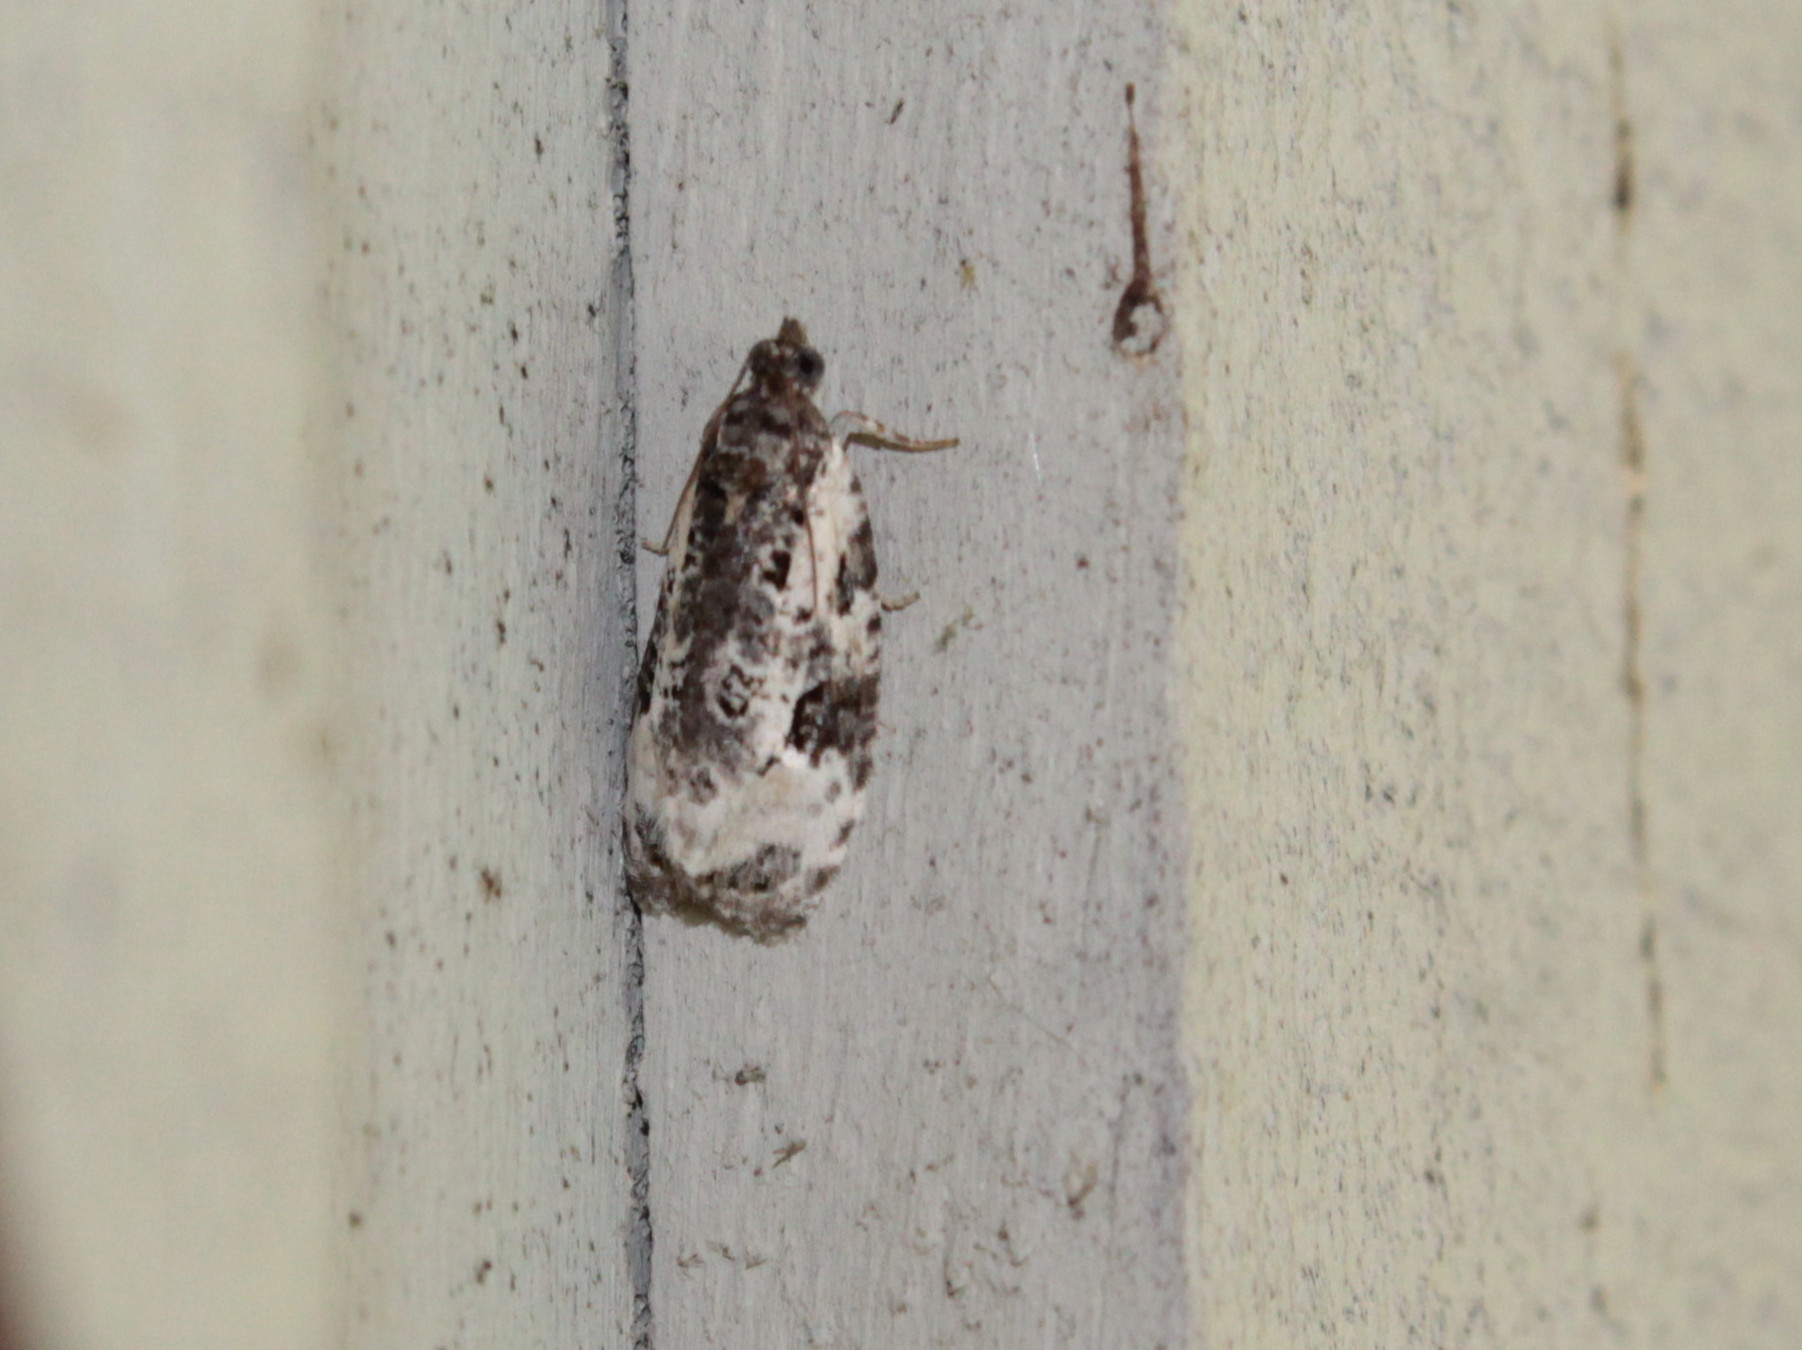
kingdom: Animalia
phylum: Arthropoda
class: Insecta
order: Lepidoptera
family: Tortricidae
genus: Apotomis
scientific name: Apotomis albeolana
